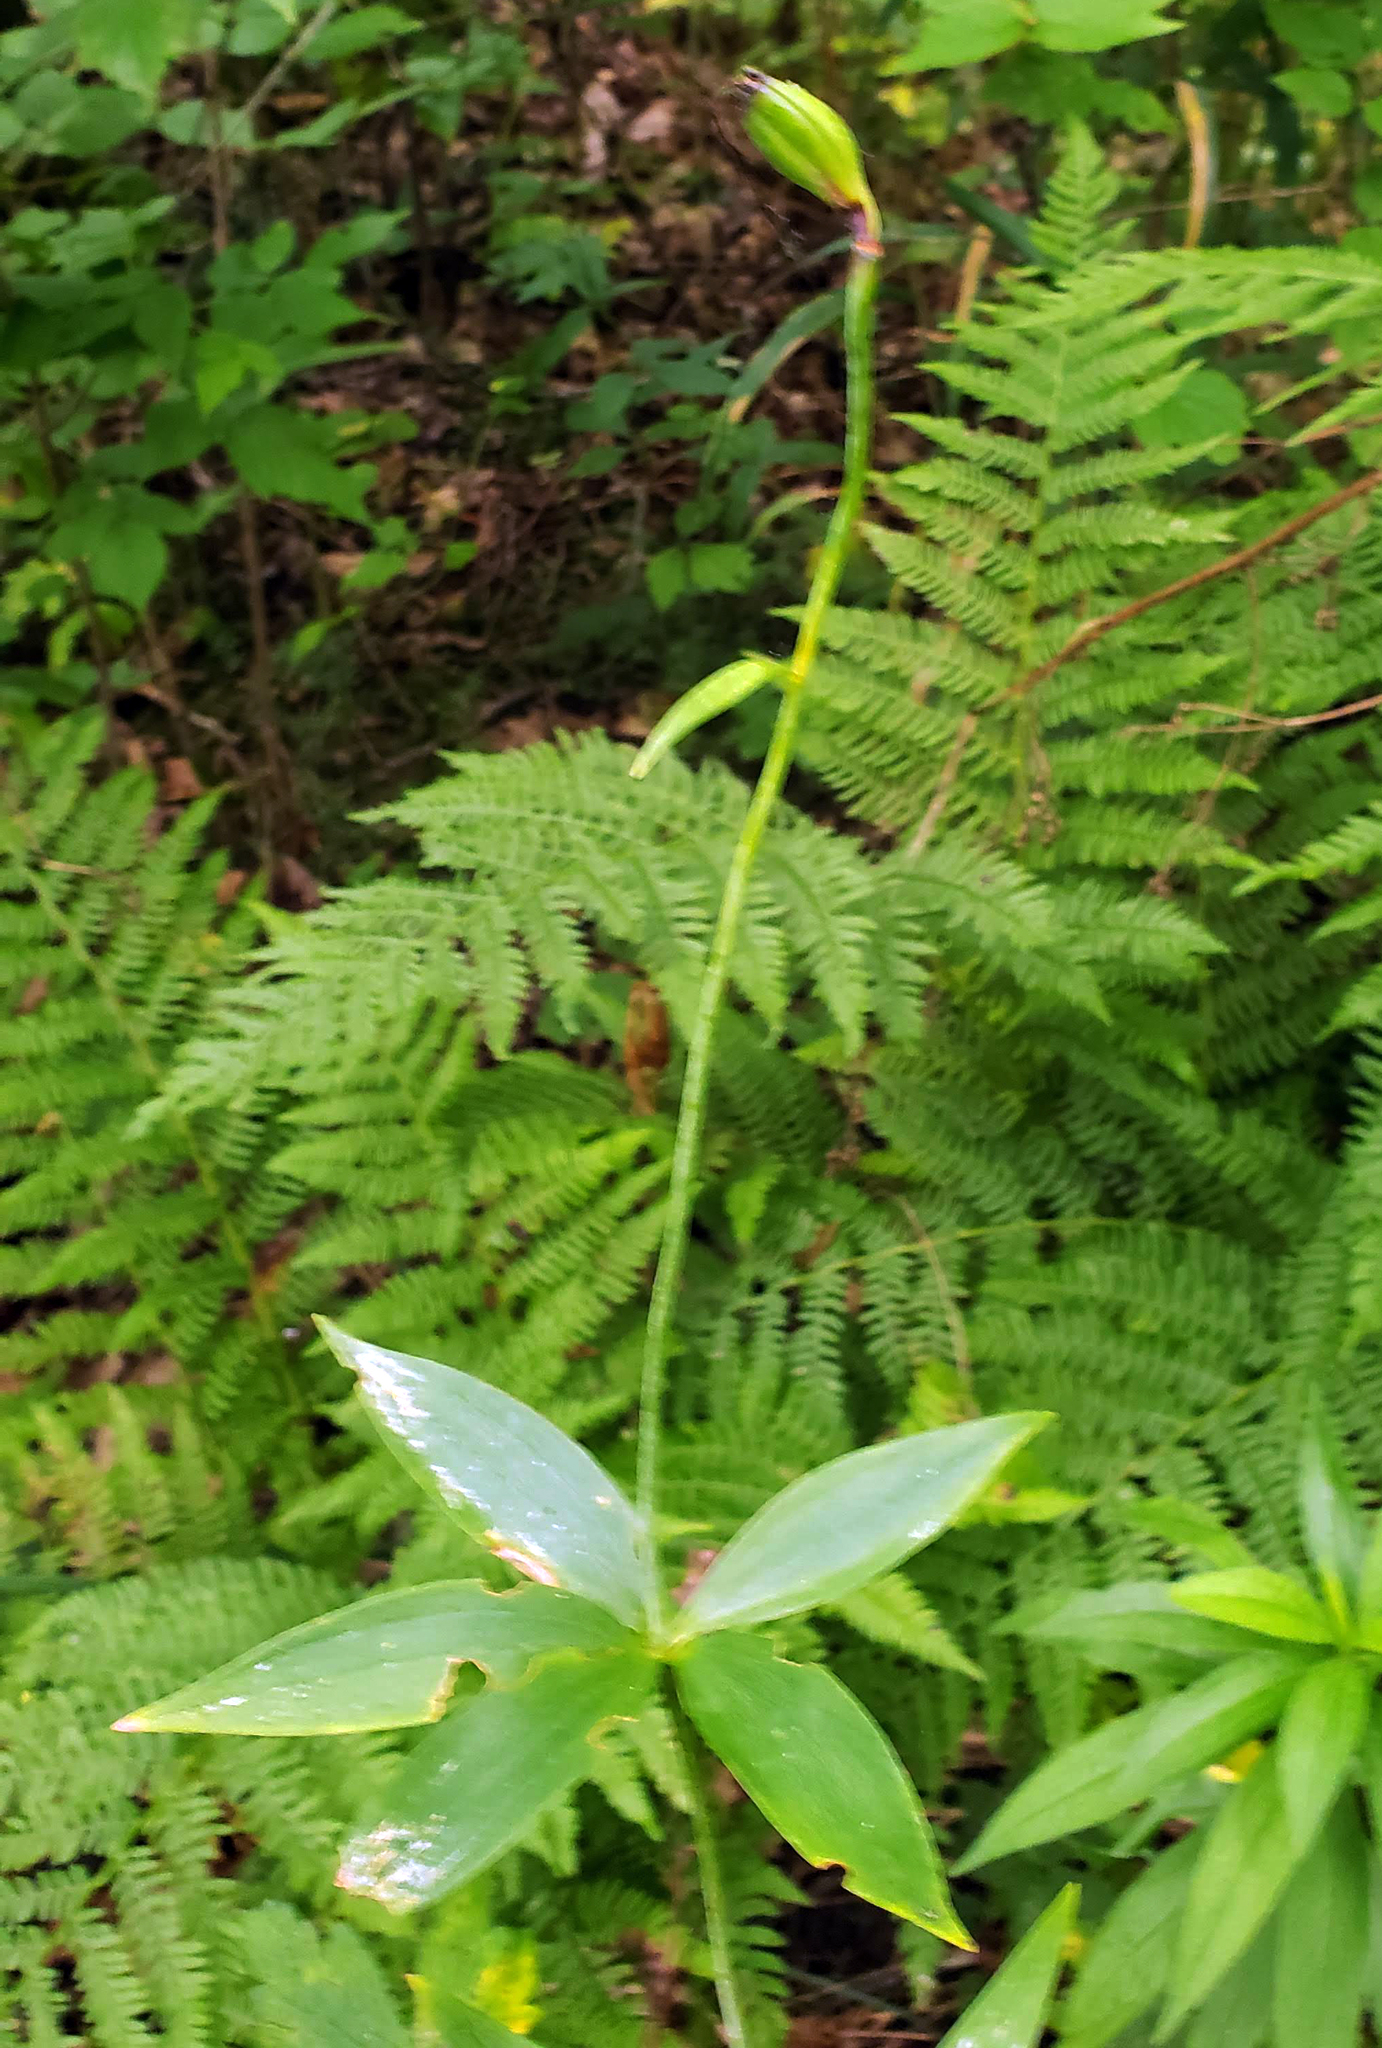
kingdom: Plantae
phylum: Tracheophyta
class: Liliopsida
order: Liliales
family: Liliaceae
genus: Lilium
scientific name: Lilium michiganense
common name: Michigan lily
